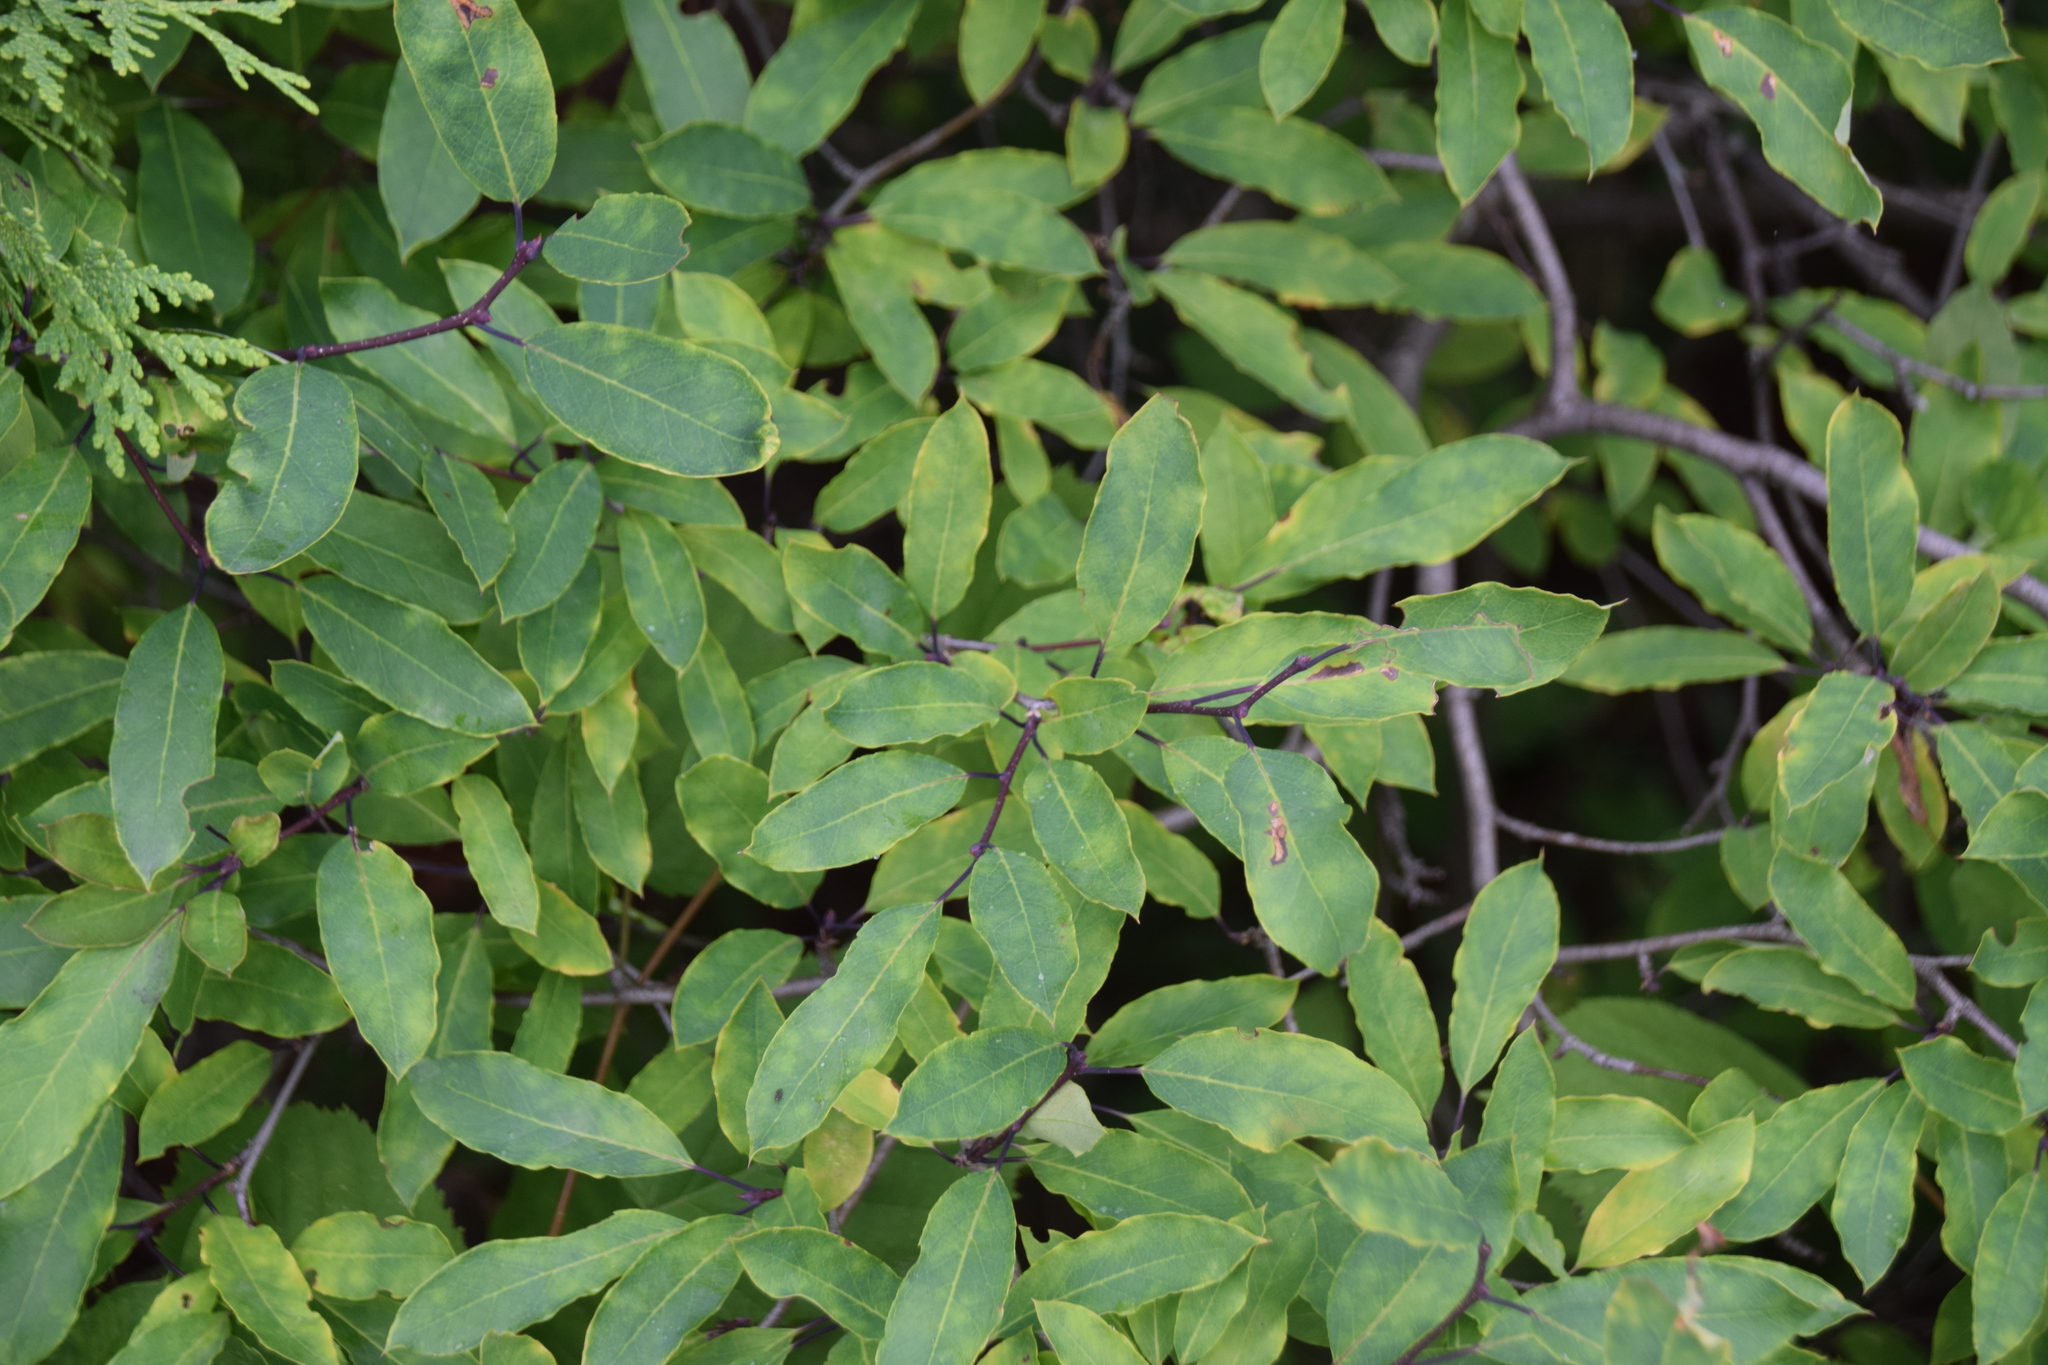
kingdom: Plantae
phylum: Tracheophyta
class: Magnoliopsida
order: Aquifoliales
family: Aquifoliaceae
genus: Ilex
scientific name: Ilex mucronata
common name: Catberry
